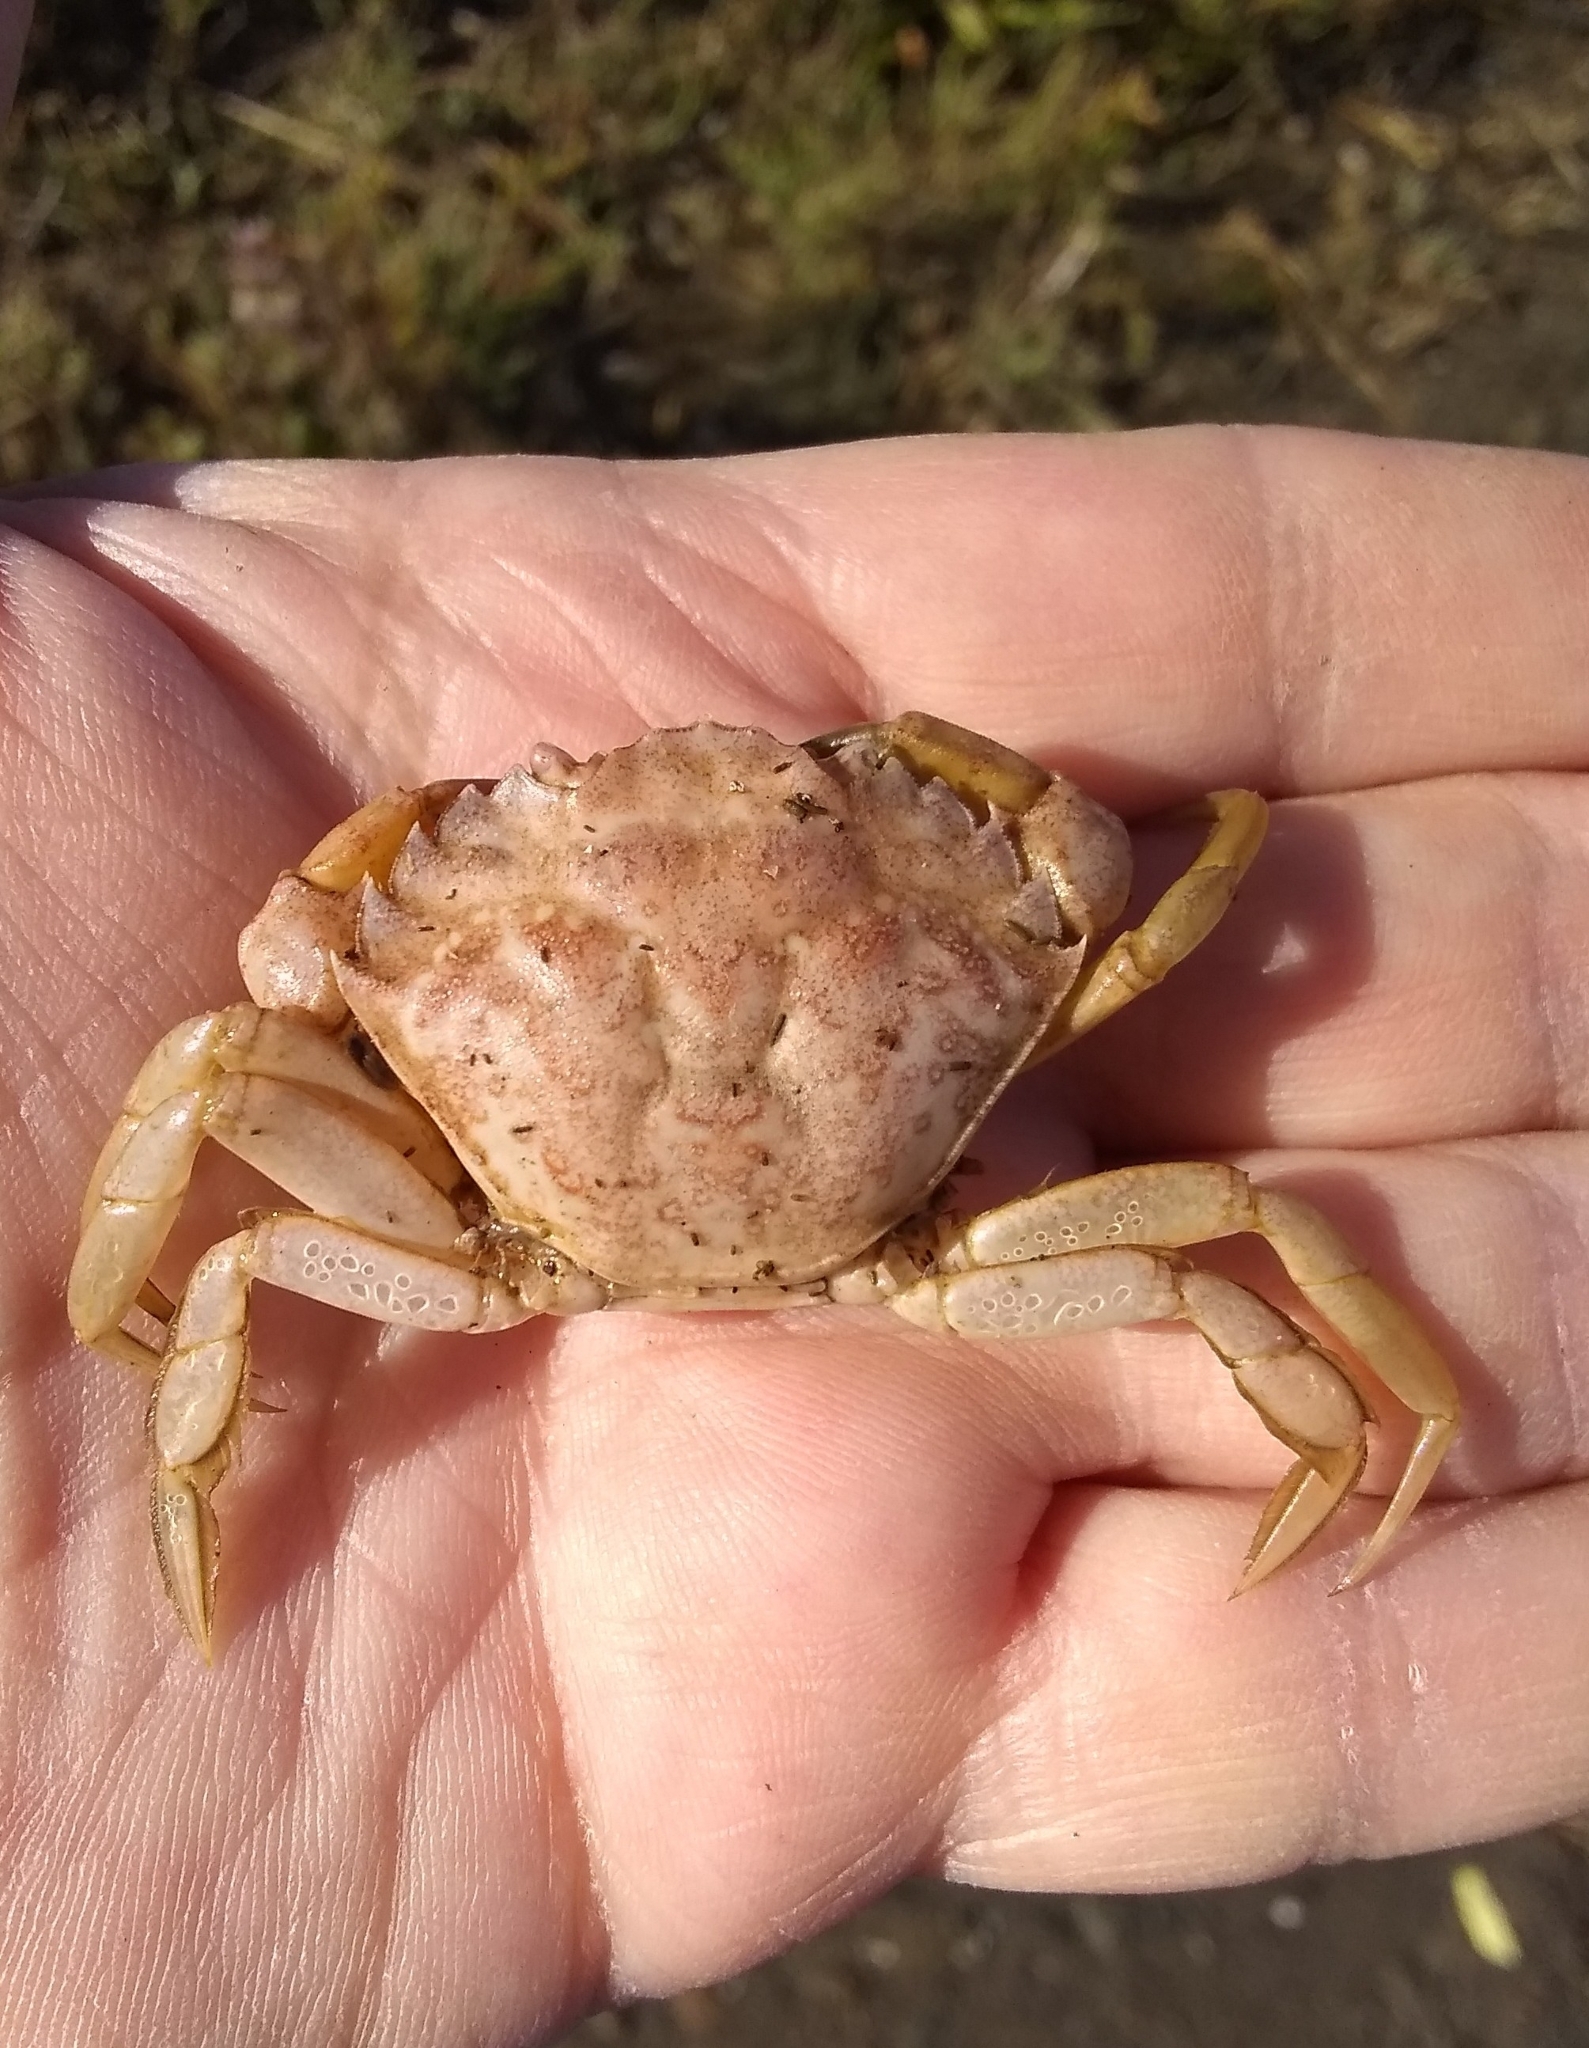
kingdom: Animalia
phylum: Arthropoda
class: Malacostraca
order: Decapoda
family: Carcinidae
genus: Carcinus
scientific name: Carcinus maenas
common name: European green crab
